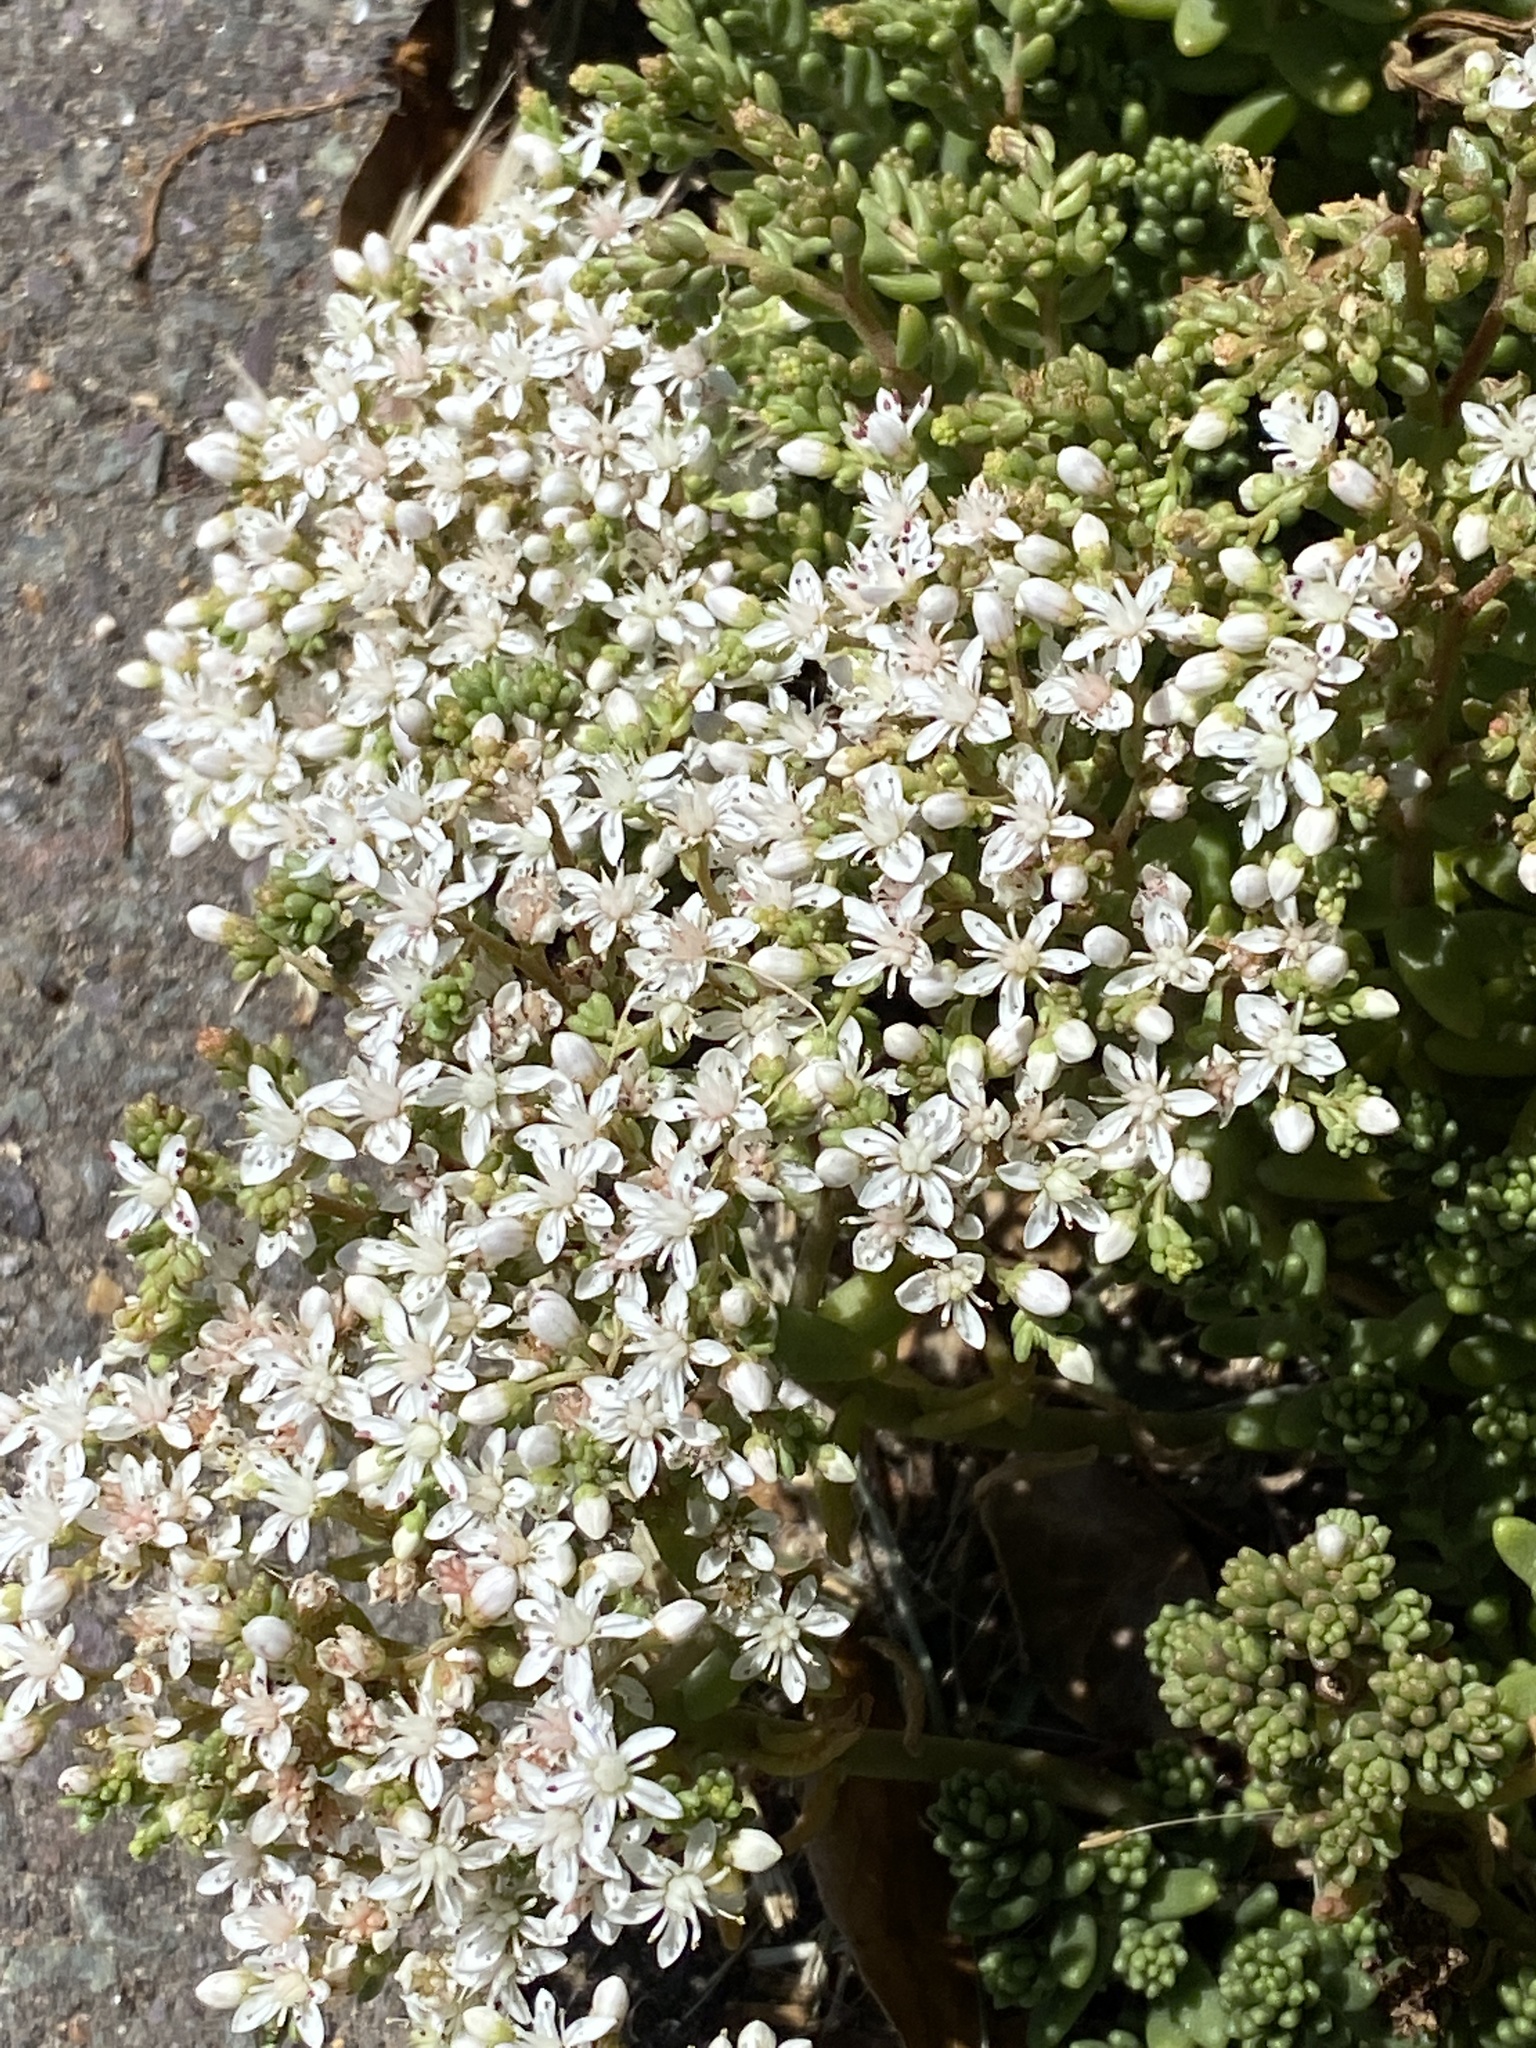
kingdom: Plantae
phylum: Tracheophyta
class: Magnoliopsida
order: Saxifragales
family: Crassulaceae
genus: Sedum
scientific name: Sedum album
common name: White stonecrop
